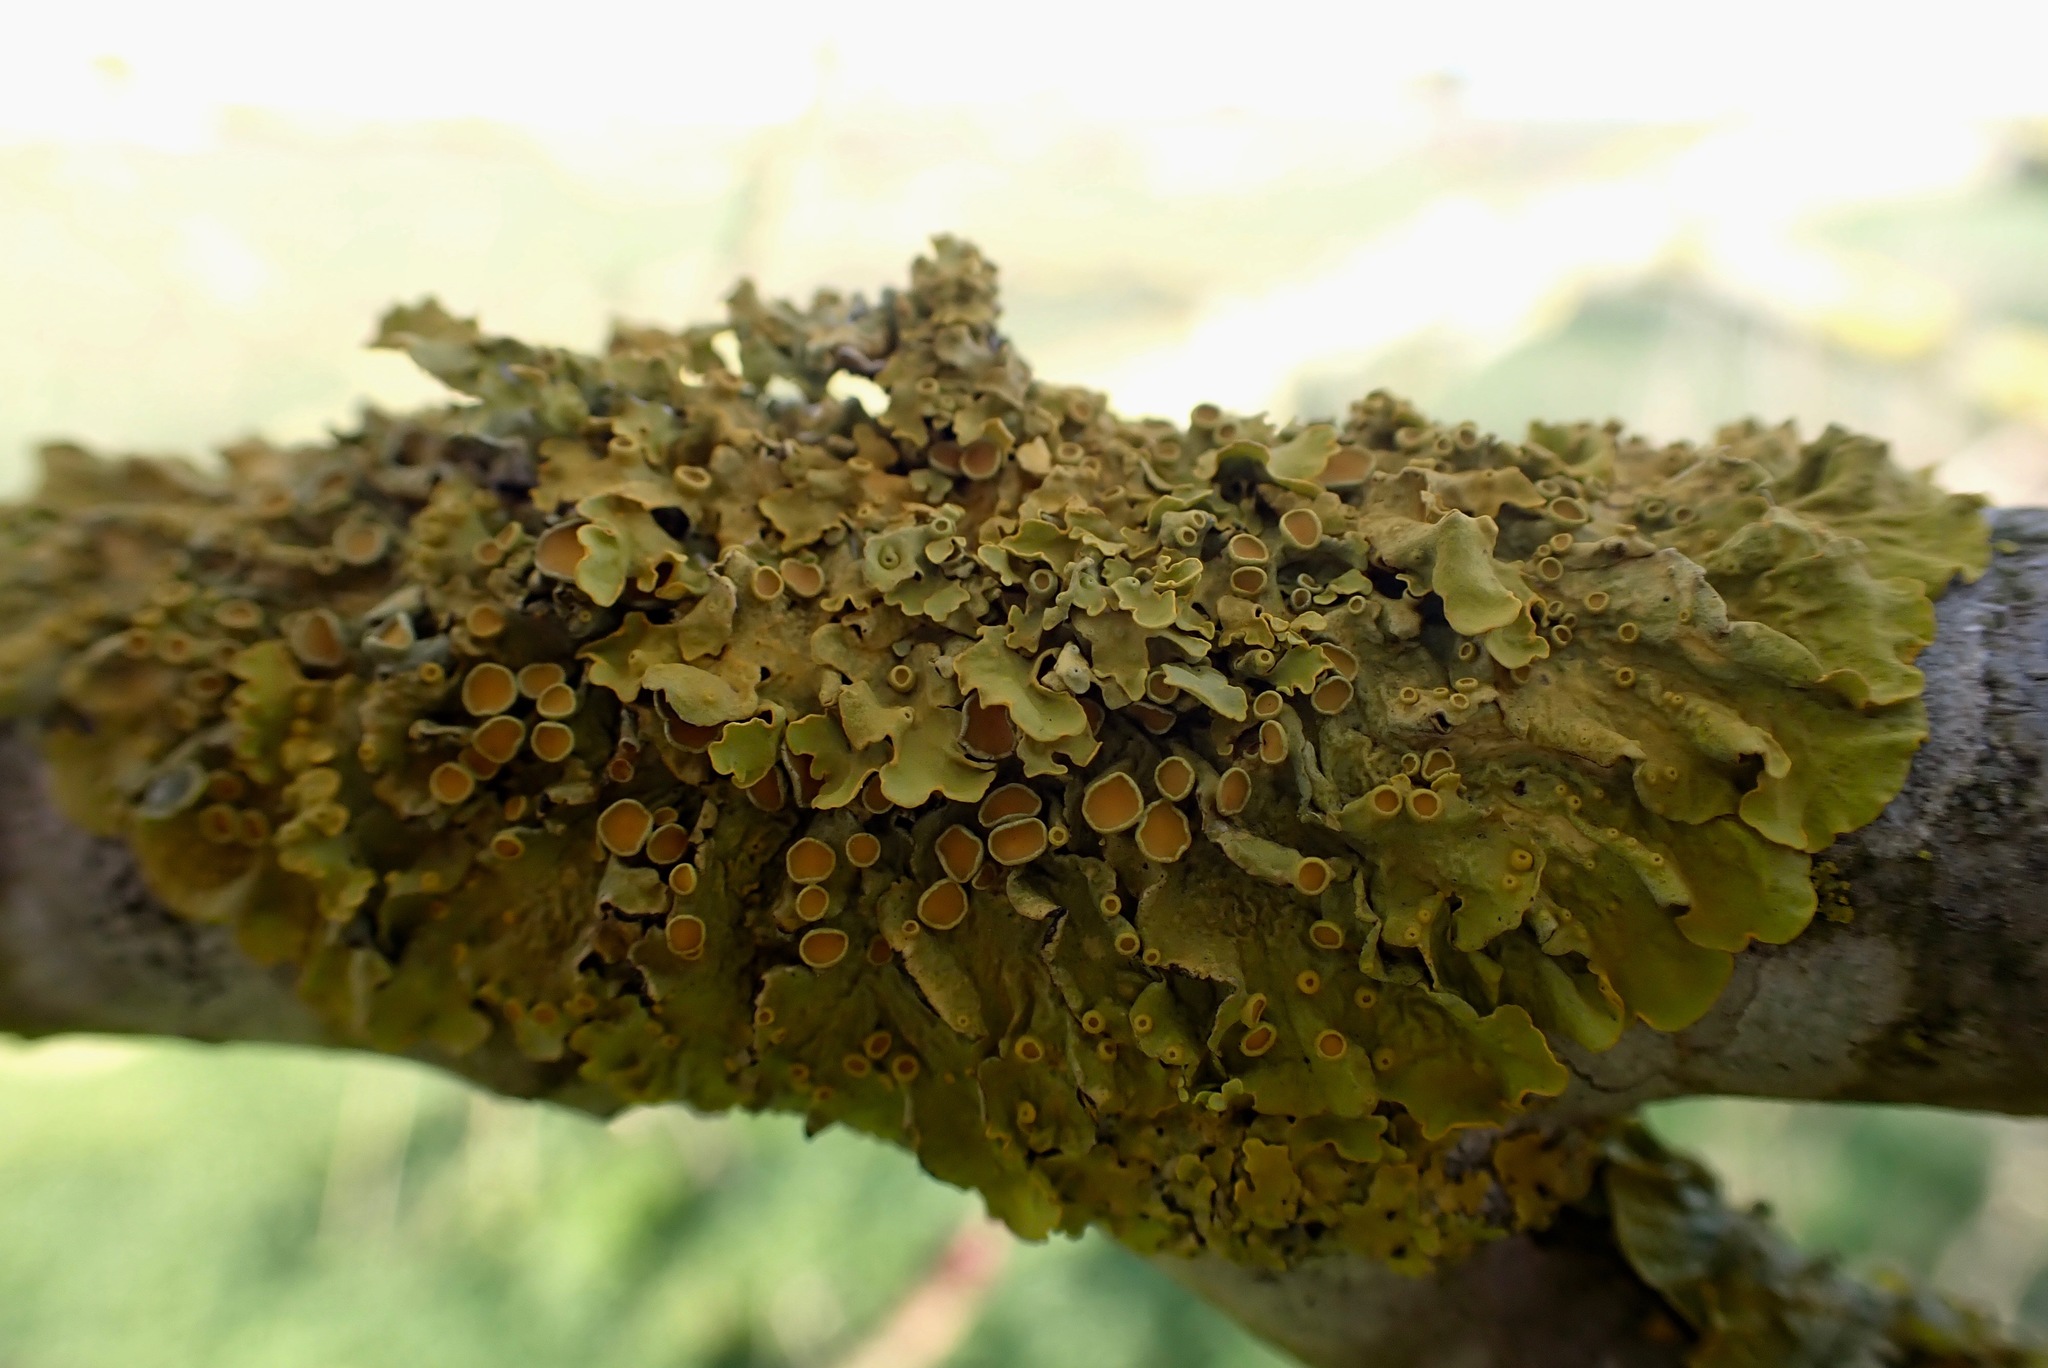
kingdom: Fungi
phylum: Ascomycota
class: Lecanoromycetes
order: Teloschistales
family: Teloschistaceae
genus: Xanthoria
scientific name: Xanthoria parietina
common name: Common orange lichen
